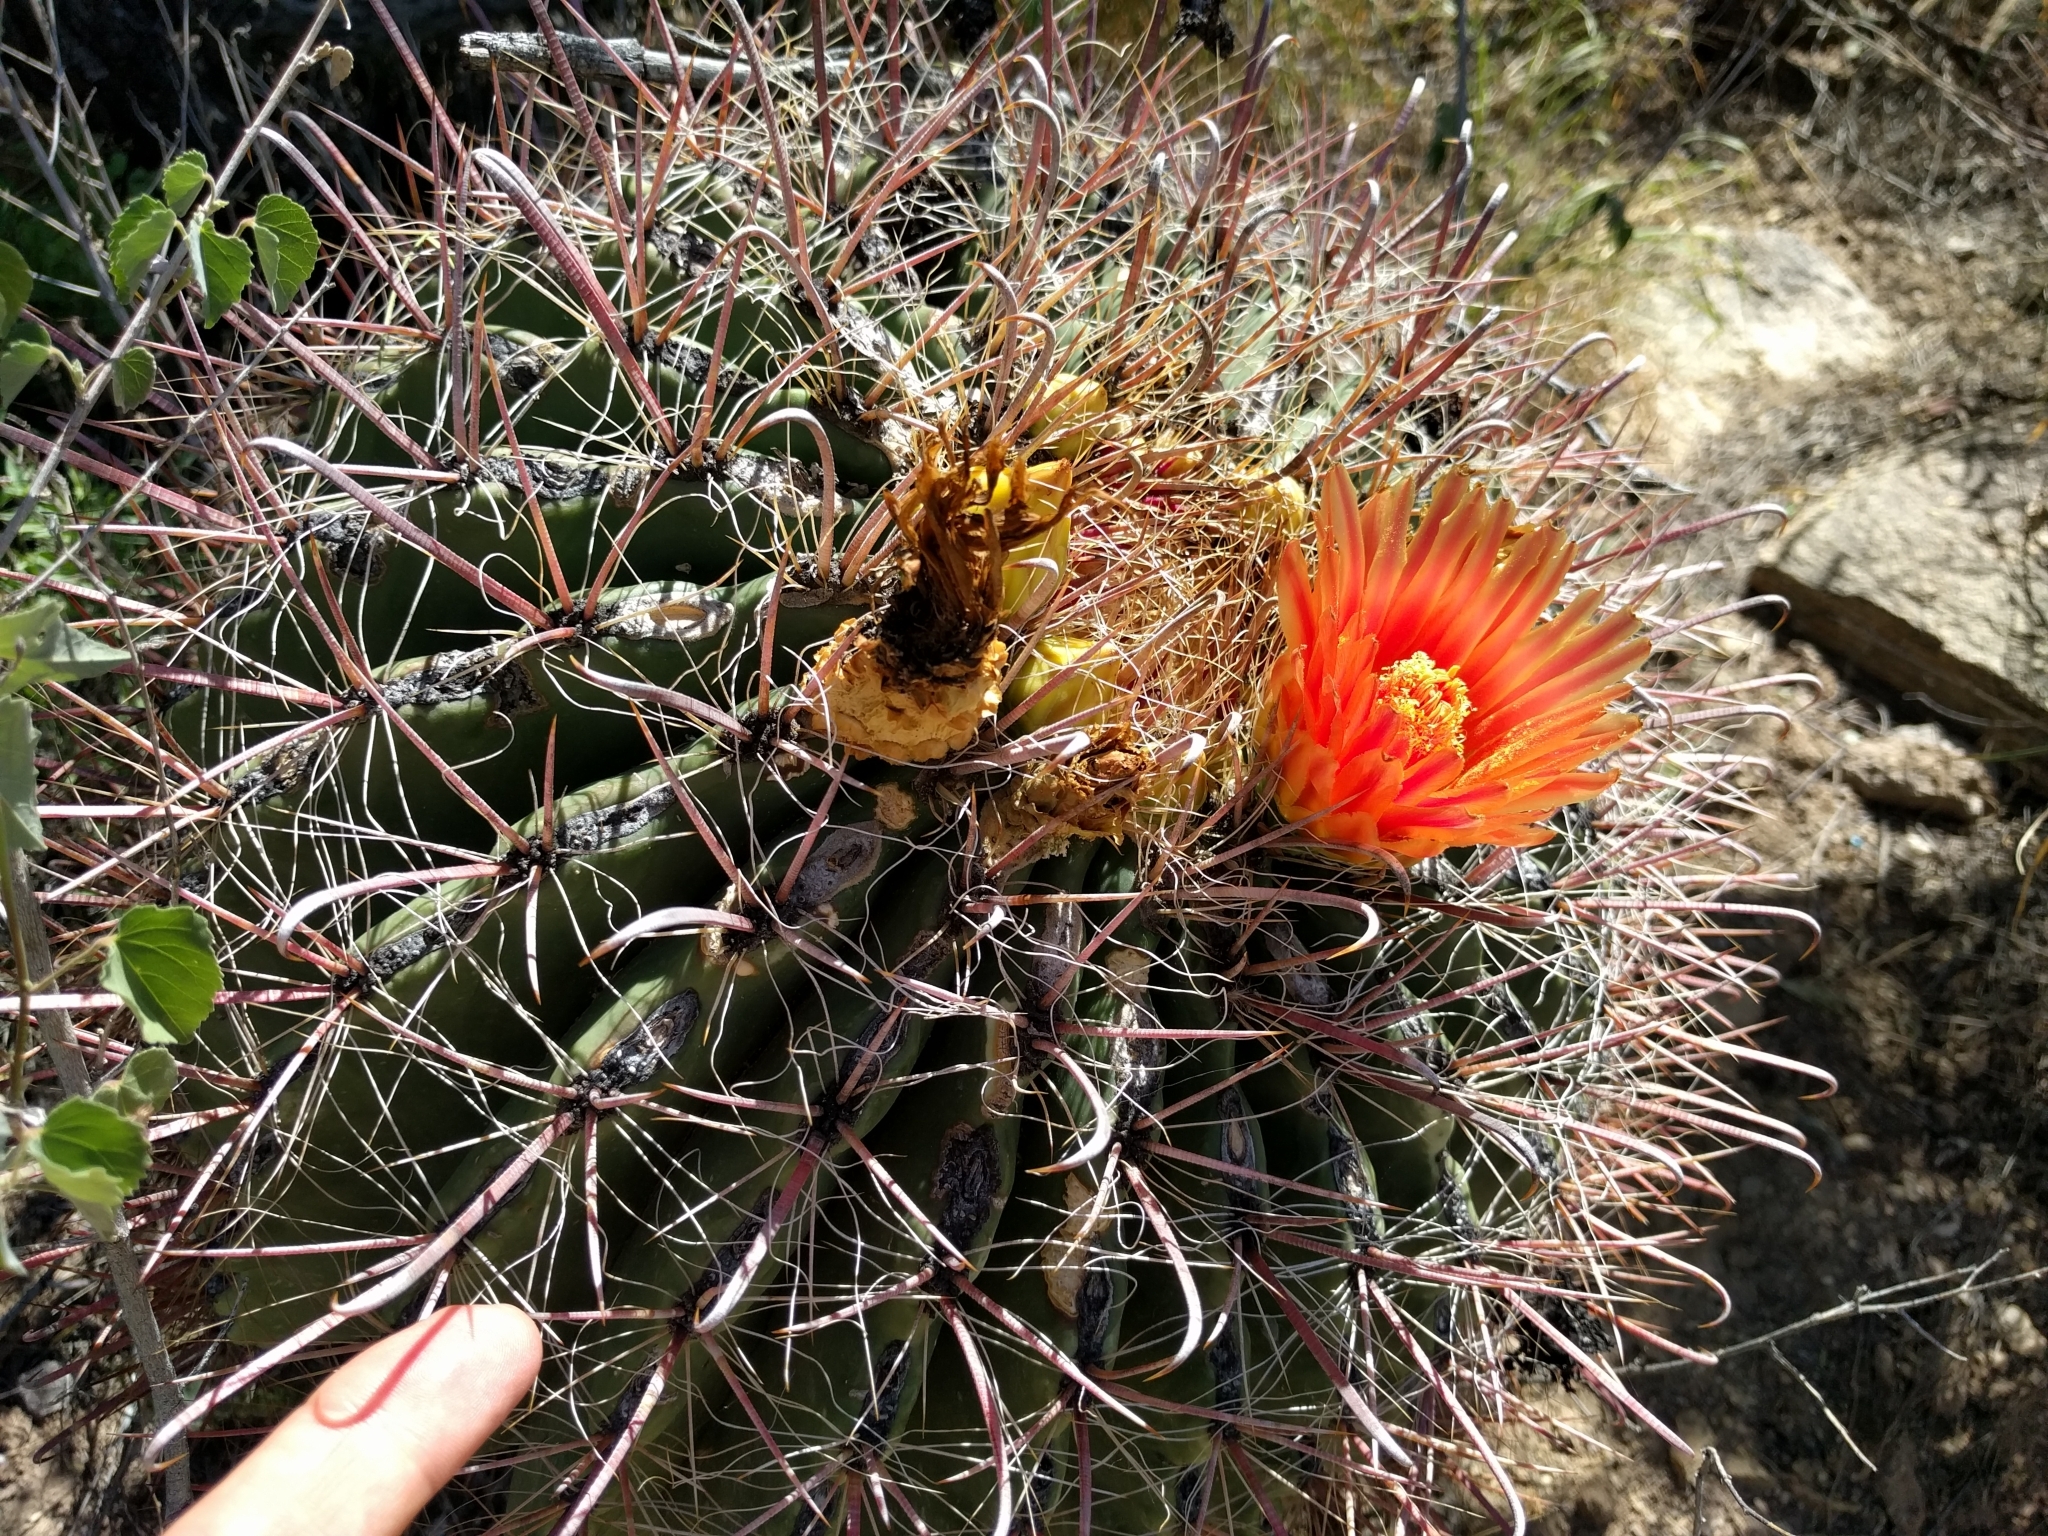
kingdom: Plantae
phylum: Tracheophyta
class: Magnoliopsida
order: Caryophyllales
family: Cactaceae
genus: Ferocactus
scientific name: Ferocactus wislizeni
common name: Candy barrel cactus
